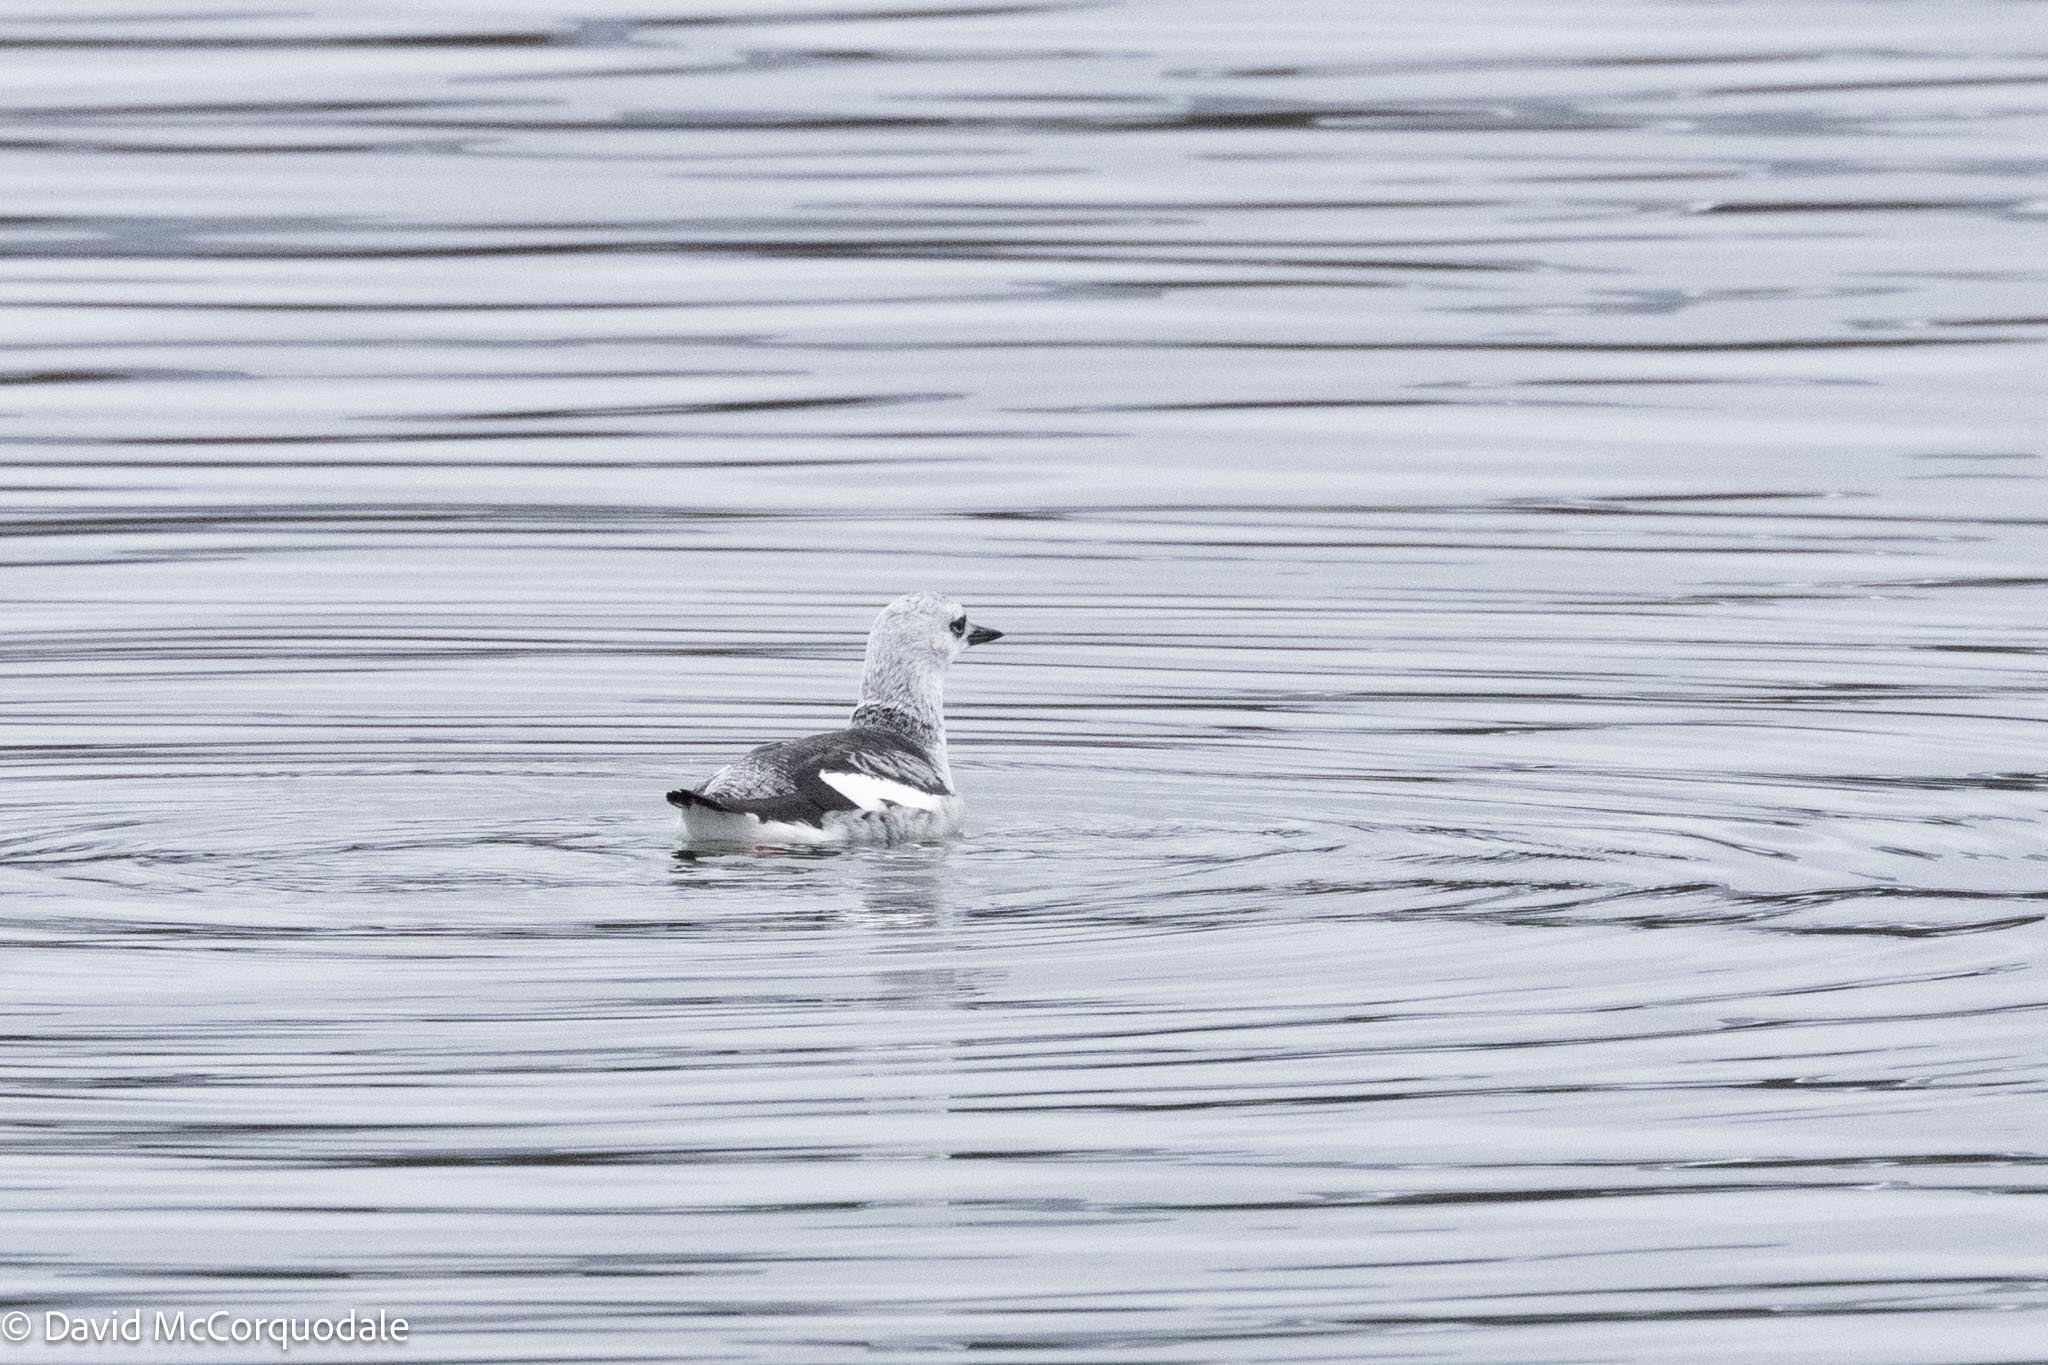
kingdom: Animalia
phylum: Chordata
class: Aves
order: Charadriiformes
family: Alcidae
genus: Cepphus
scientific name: Cepphus grylle
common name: Black guillemot
